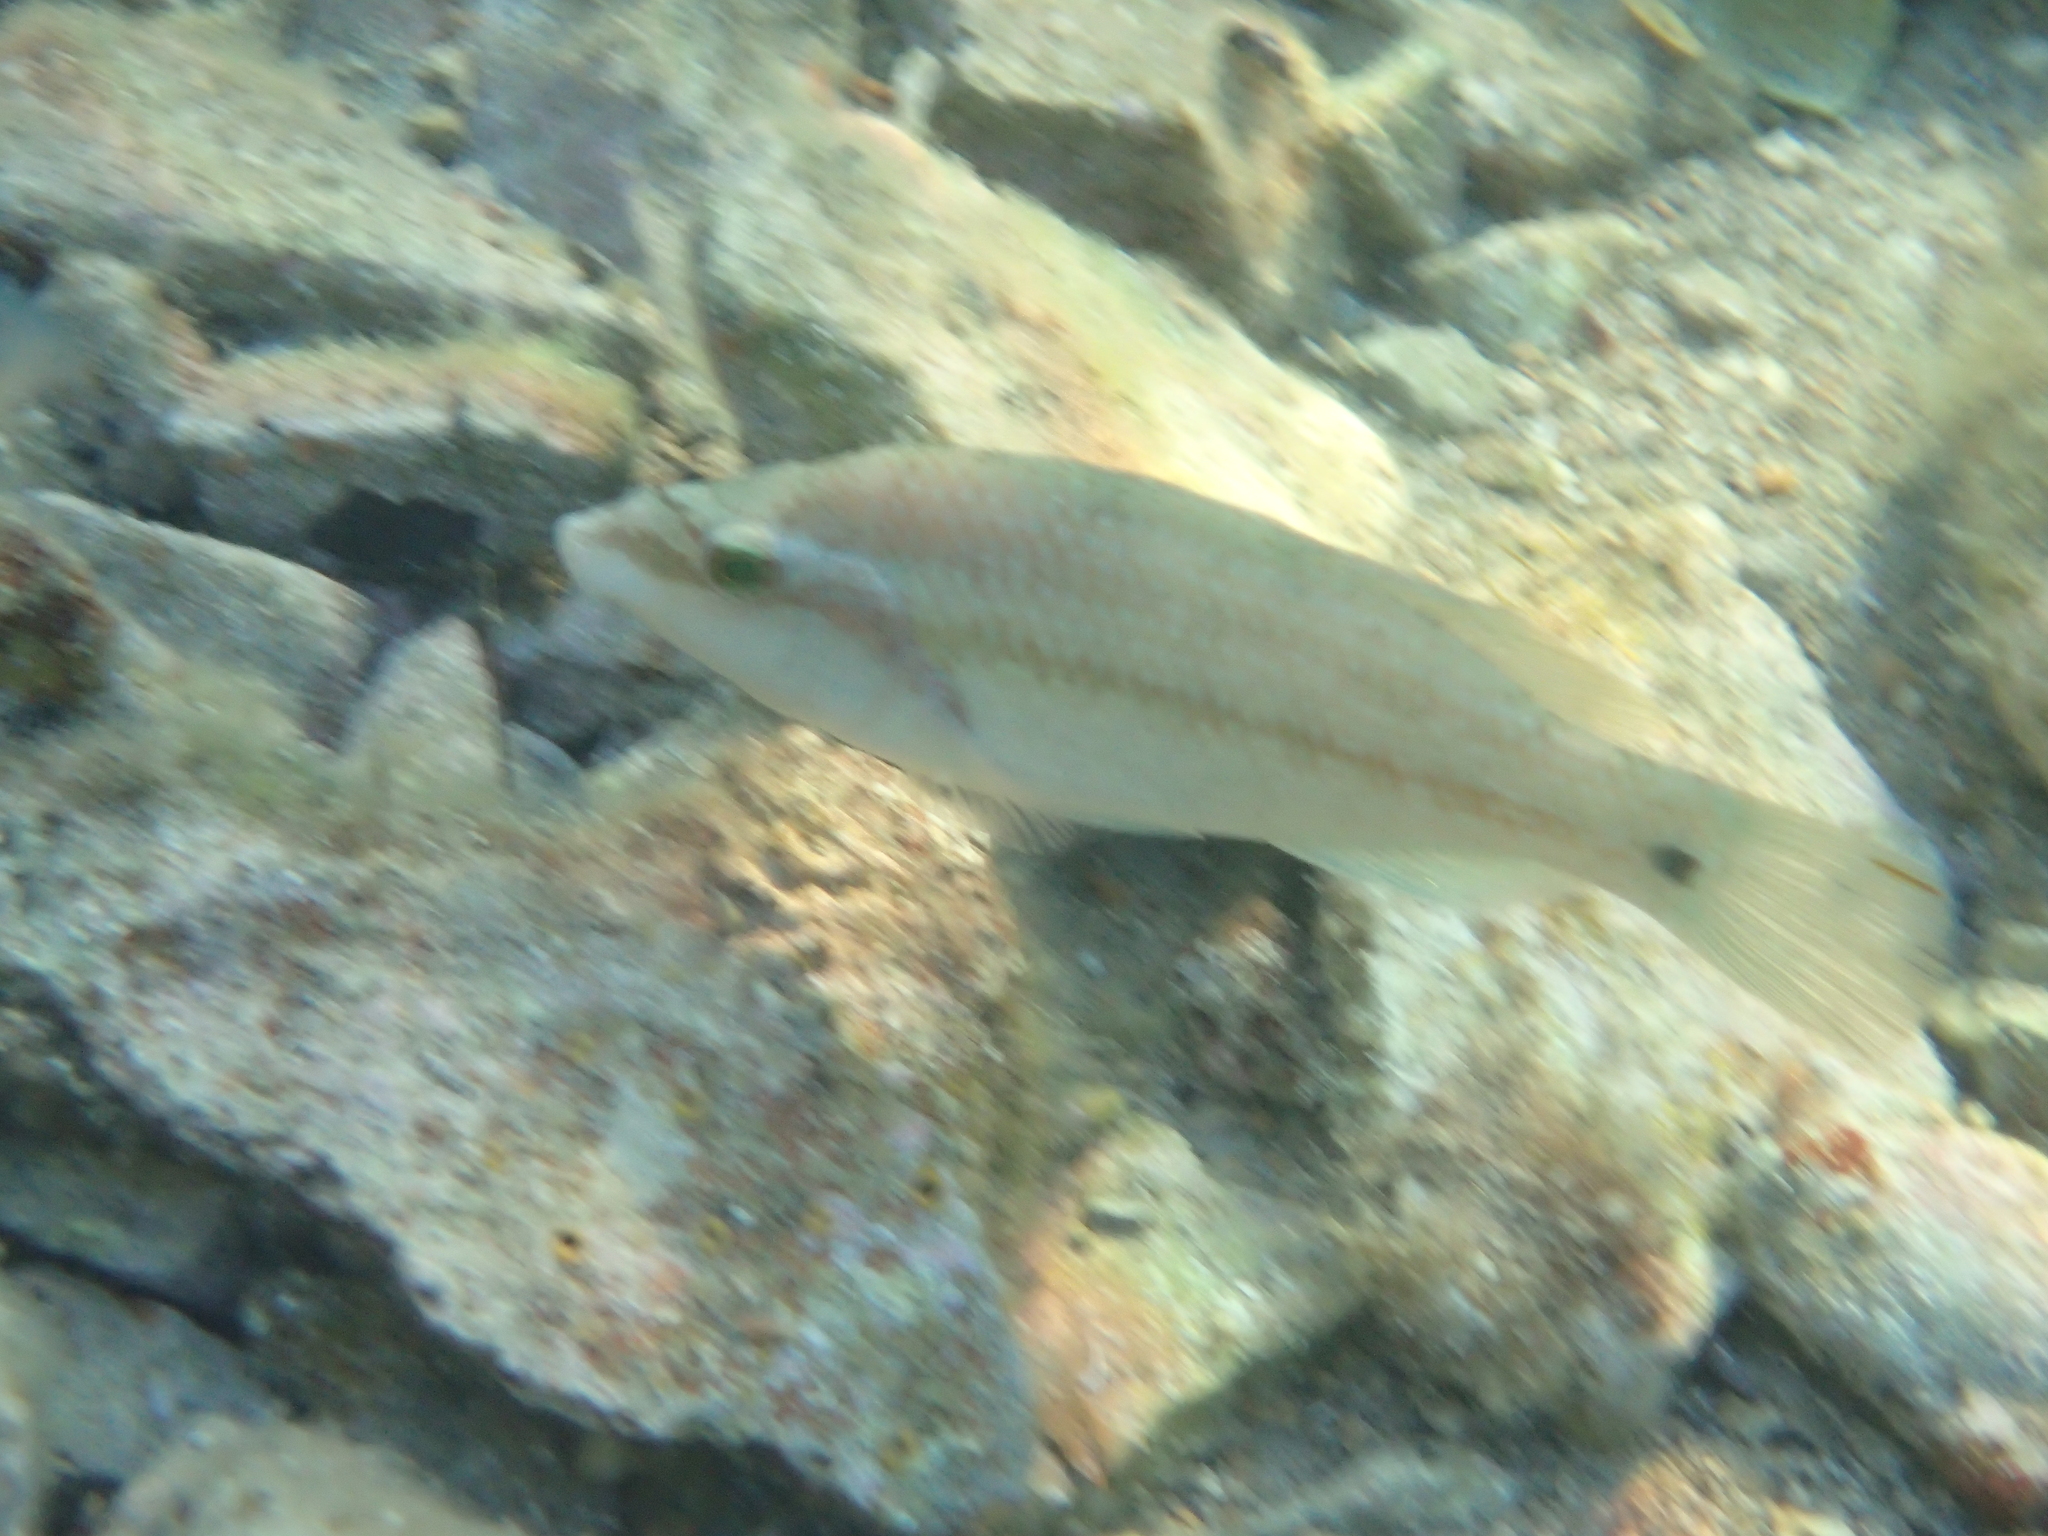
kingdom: Animalia
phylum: Chordata
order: Perciformes
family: Labridae
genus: Symphodus
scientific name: Symphodus tinca
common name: Peacock wrasse
